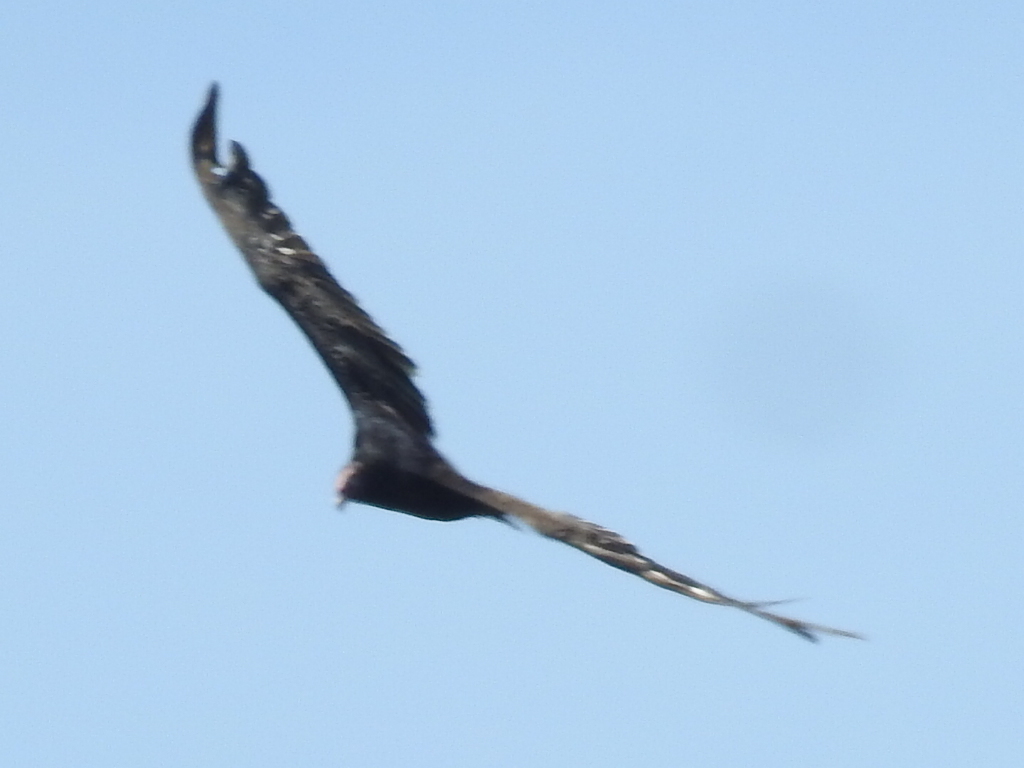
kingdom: Animalia
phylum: Chordata
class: Aves
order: Accipitriformes
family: Cathartidae
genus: Cathartes
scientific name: Cathartes aura
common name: Turkey vulture
